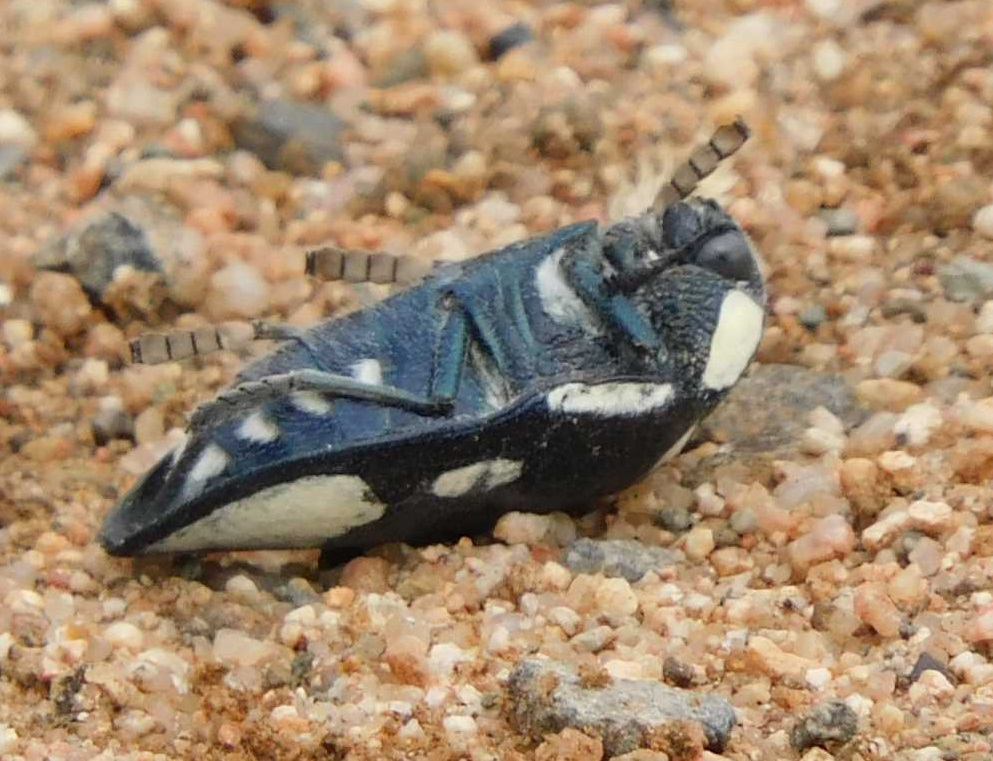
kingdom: Animalia
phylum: Arthropoda
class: Insecta
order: Coleoptera
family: Buprestidae
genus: Sternocera
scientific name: Sternocera orissa
